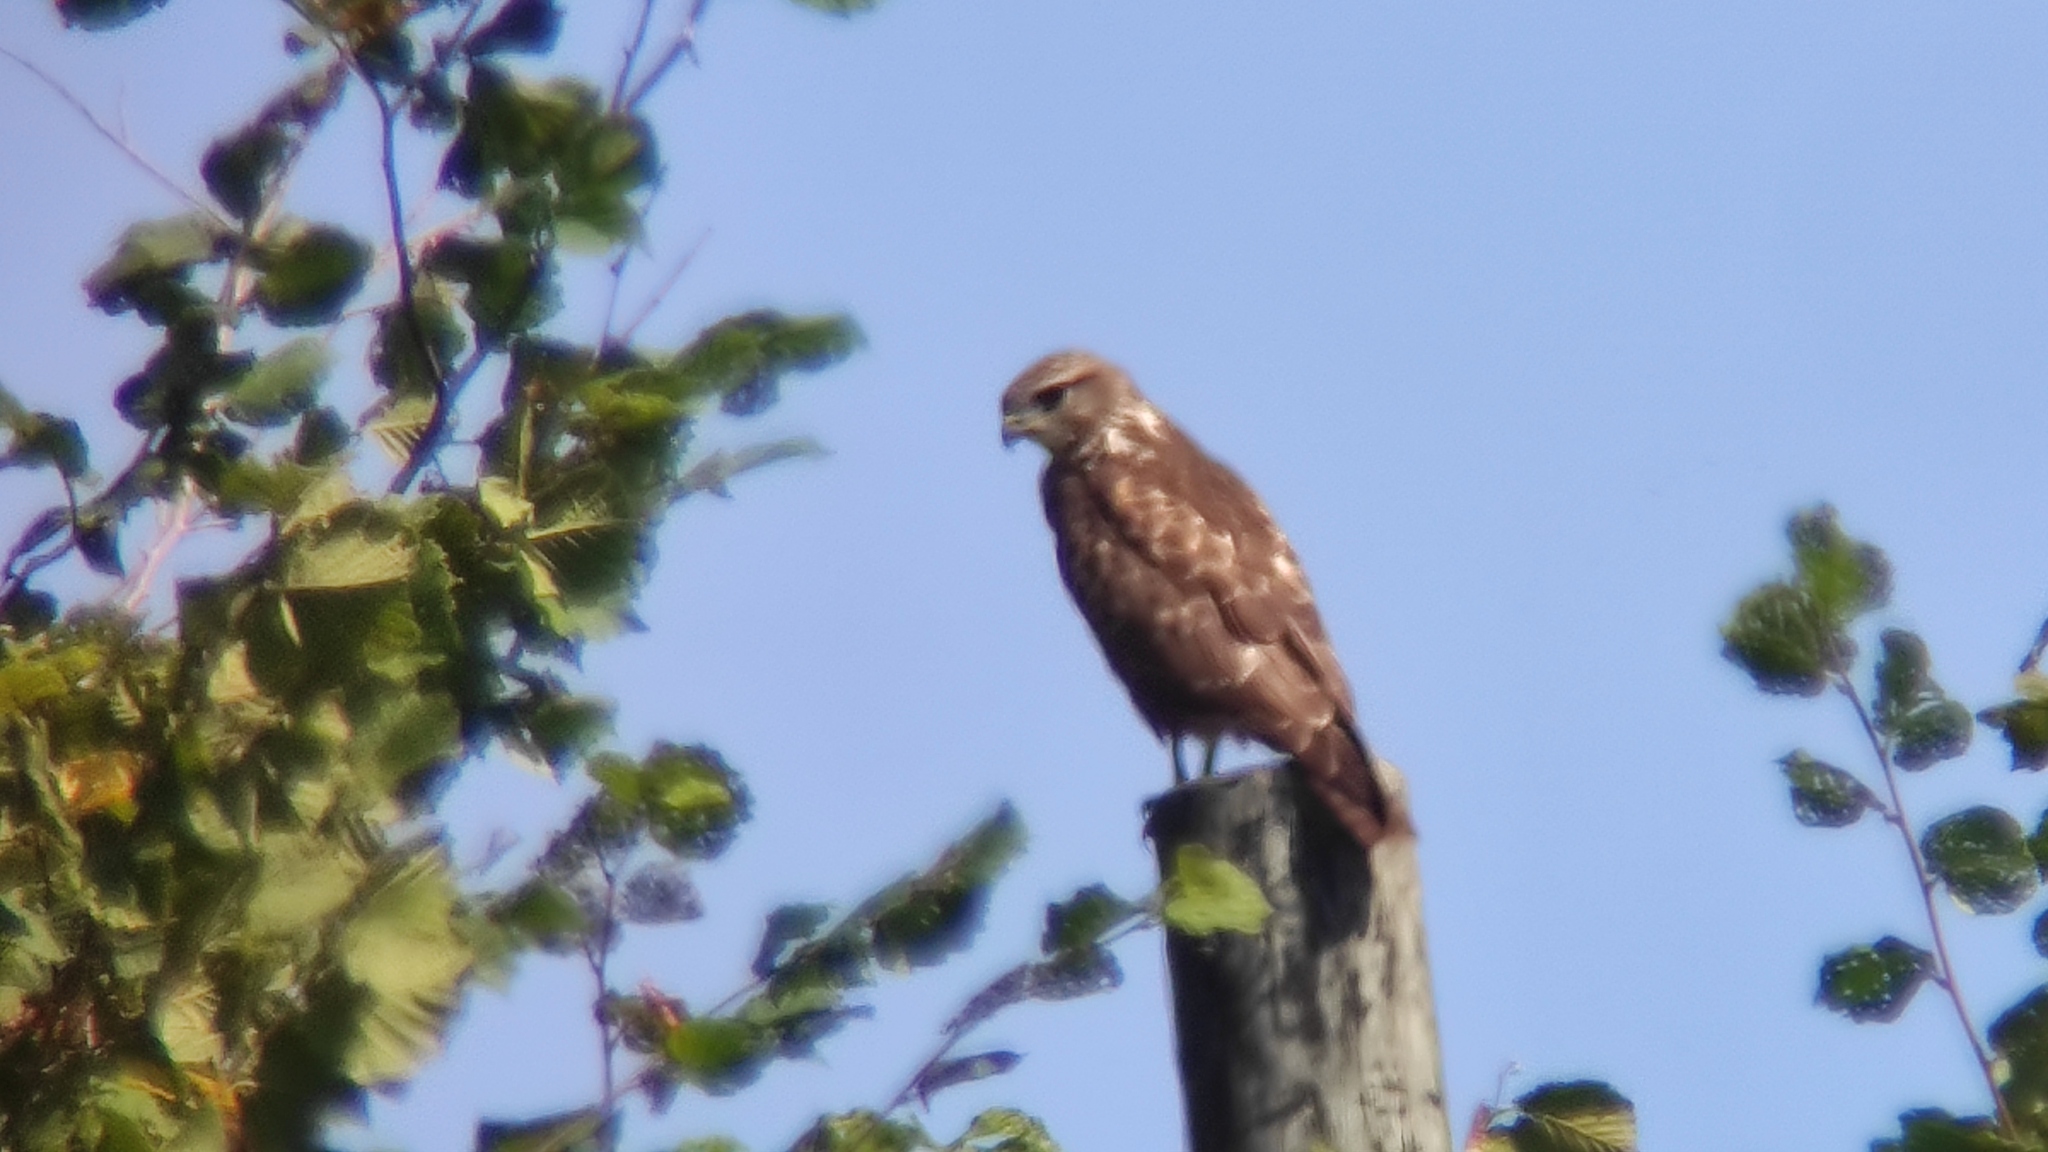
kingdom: Animalia
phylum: Chordata
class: Aves
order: Accipitriformes
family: Accipitridae
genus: Buteo
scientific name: Buteo buteo
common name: Common buzzard
